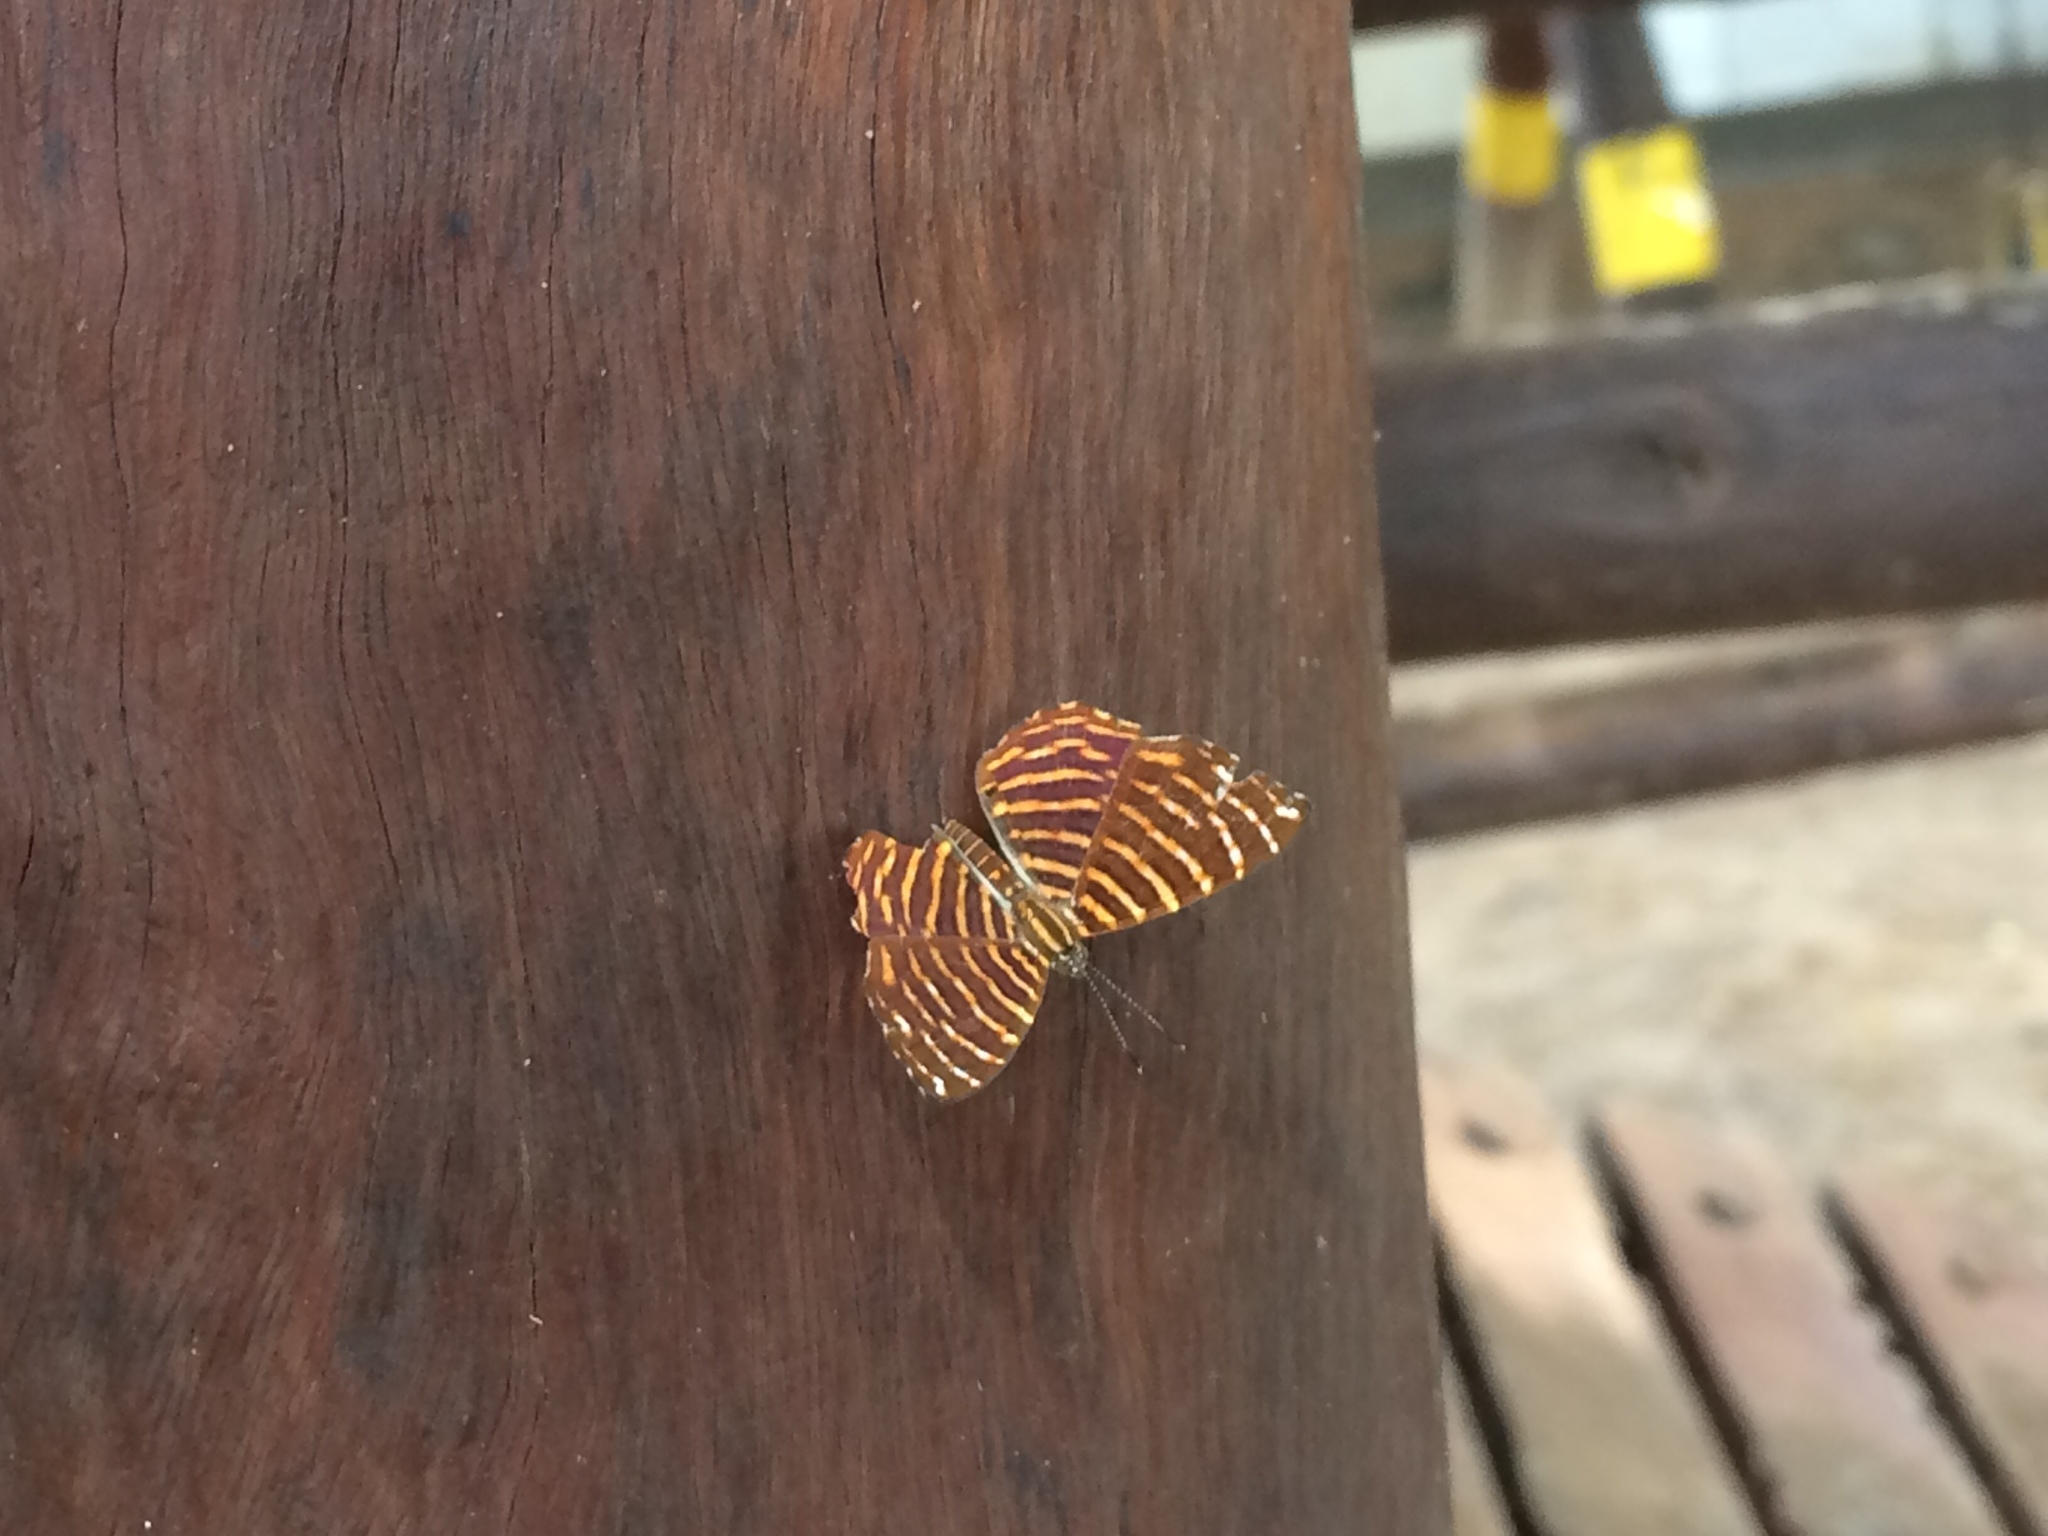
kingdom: Animalia
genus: Hyphilaria
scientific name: Hyphilaria thasus
